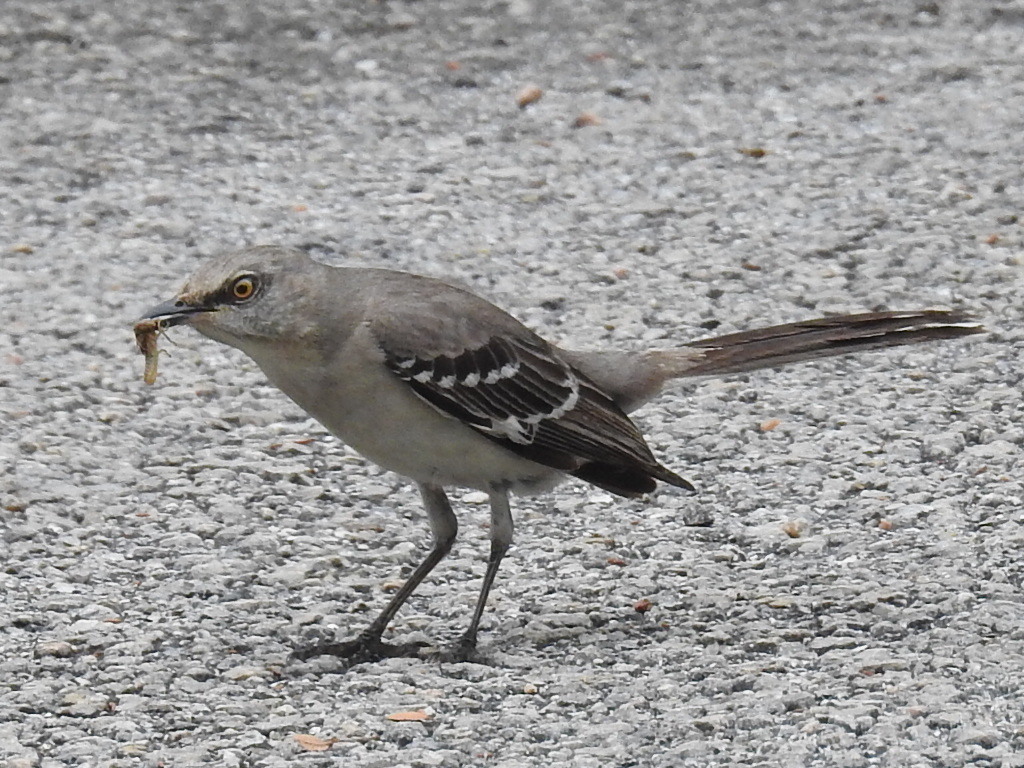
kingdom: Animalia
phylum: Chordata
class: Aves
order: Passeriformes
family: Mimidae
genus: Mimus
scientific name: Mimus polyglottos
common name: Northern mockingbird
